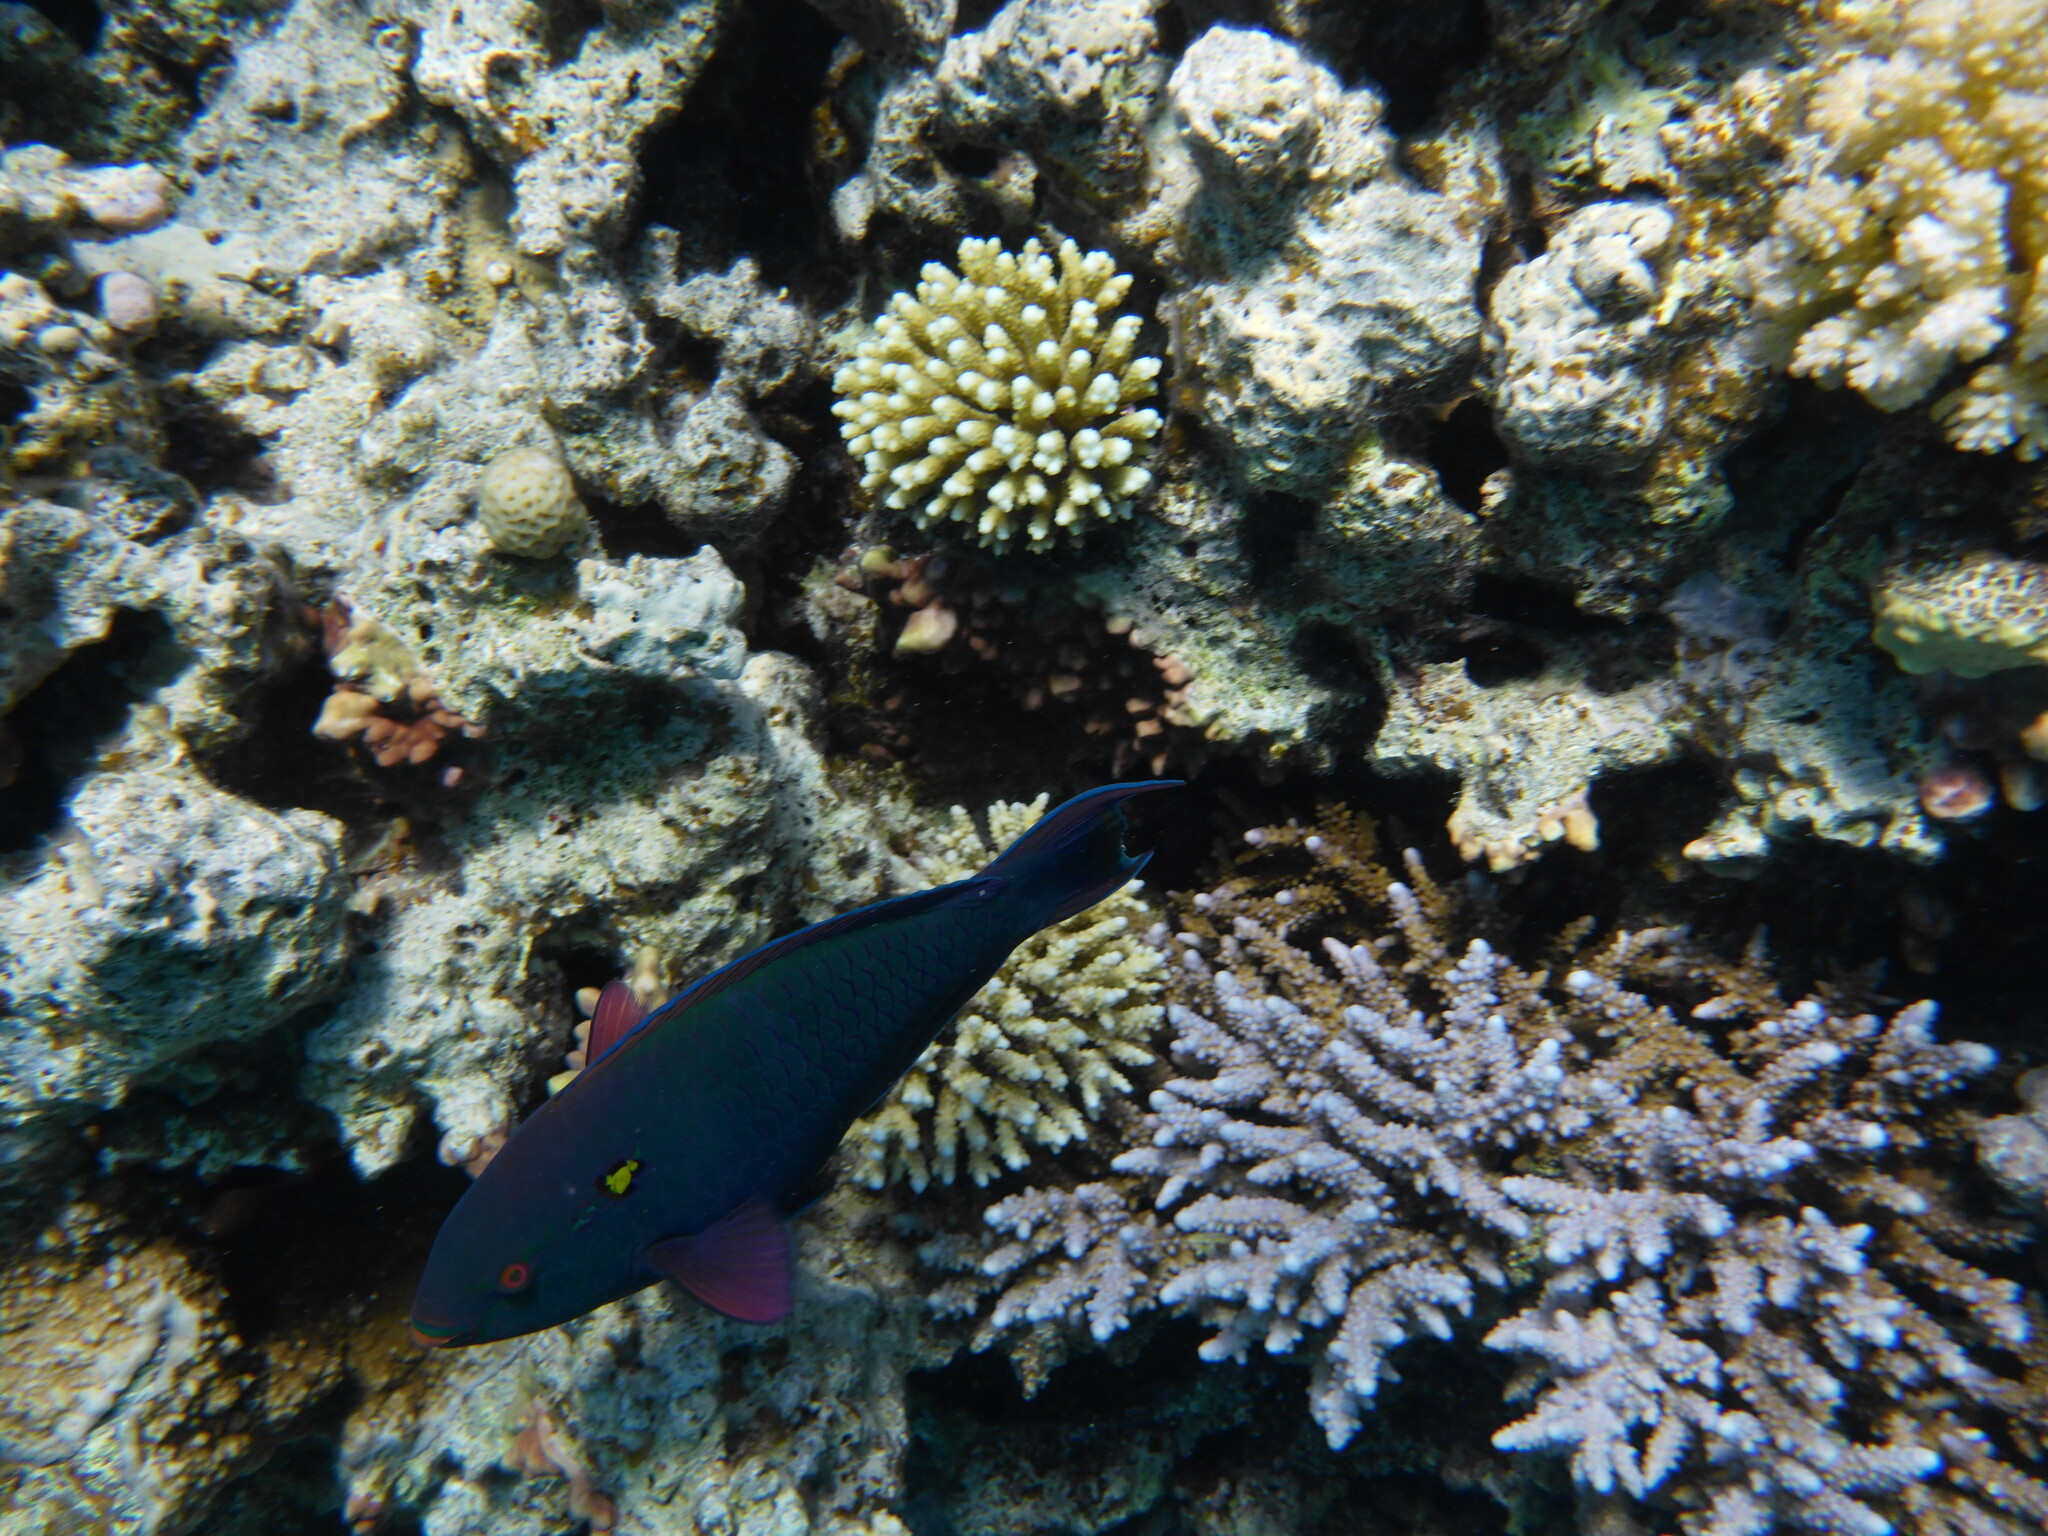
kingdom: Animalia
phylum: Chordata
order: Perciformes
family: Scaridae
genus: Scarus
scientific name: Scarus niger
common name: Dusky parrotfish
